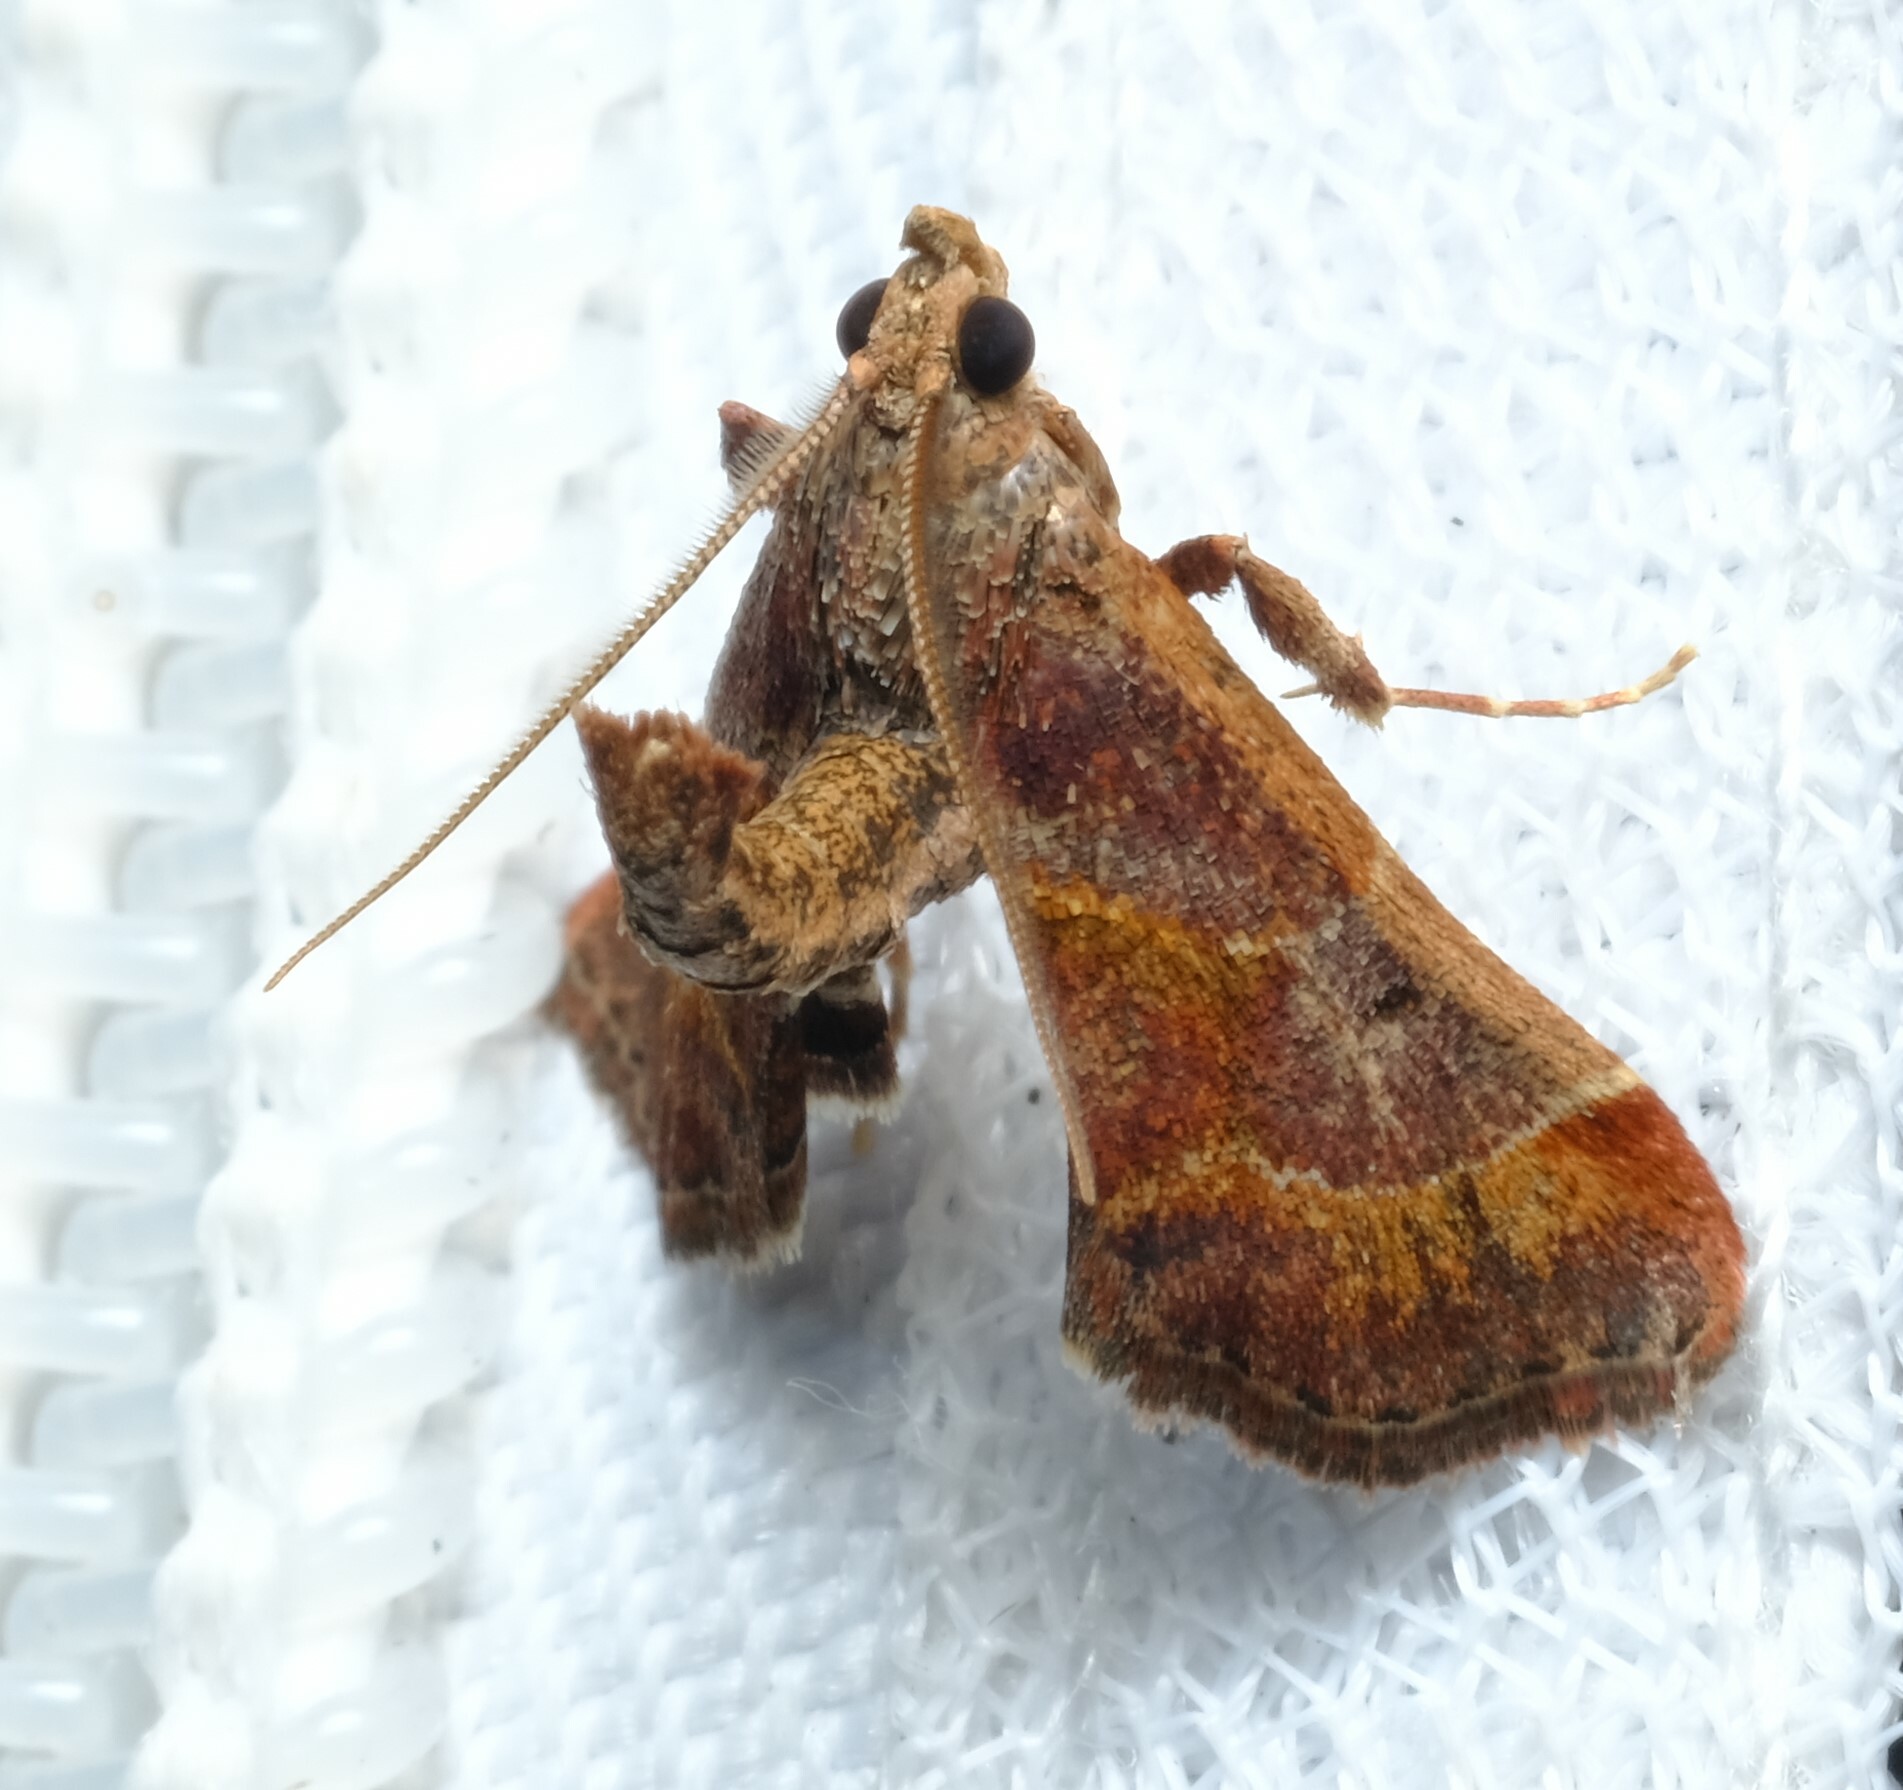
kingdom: Animalia
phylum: Arthropoda
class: Insecta
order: Lepidoptera
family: Pyralidae
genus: Gauna
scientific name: Gauna aegusalis
